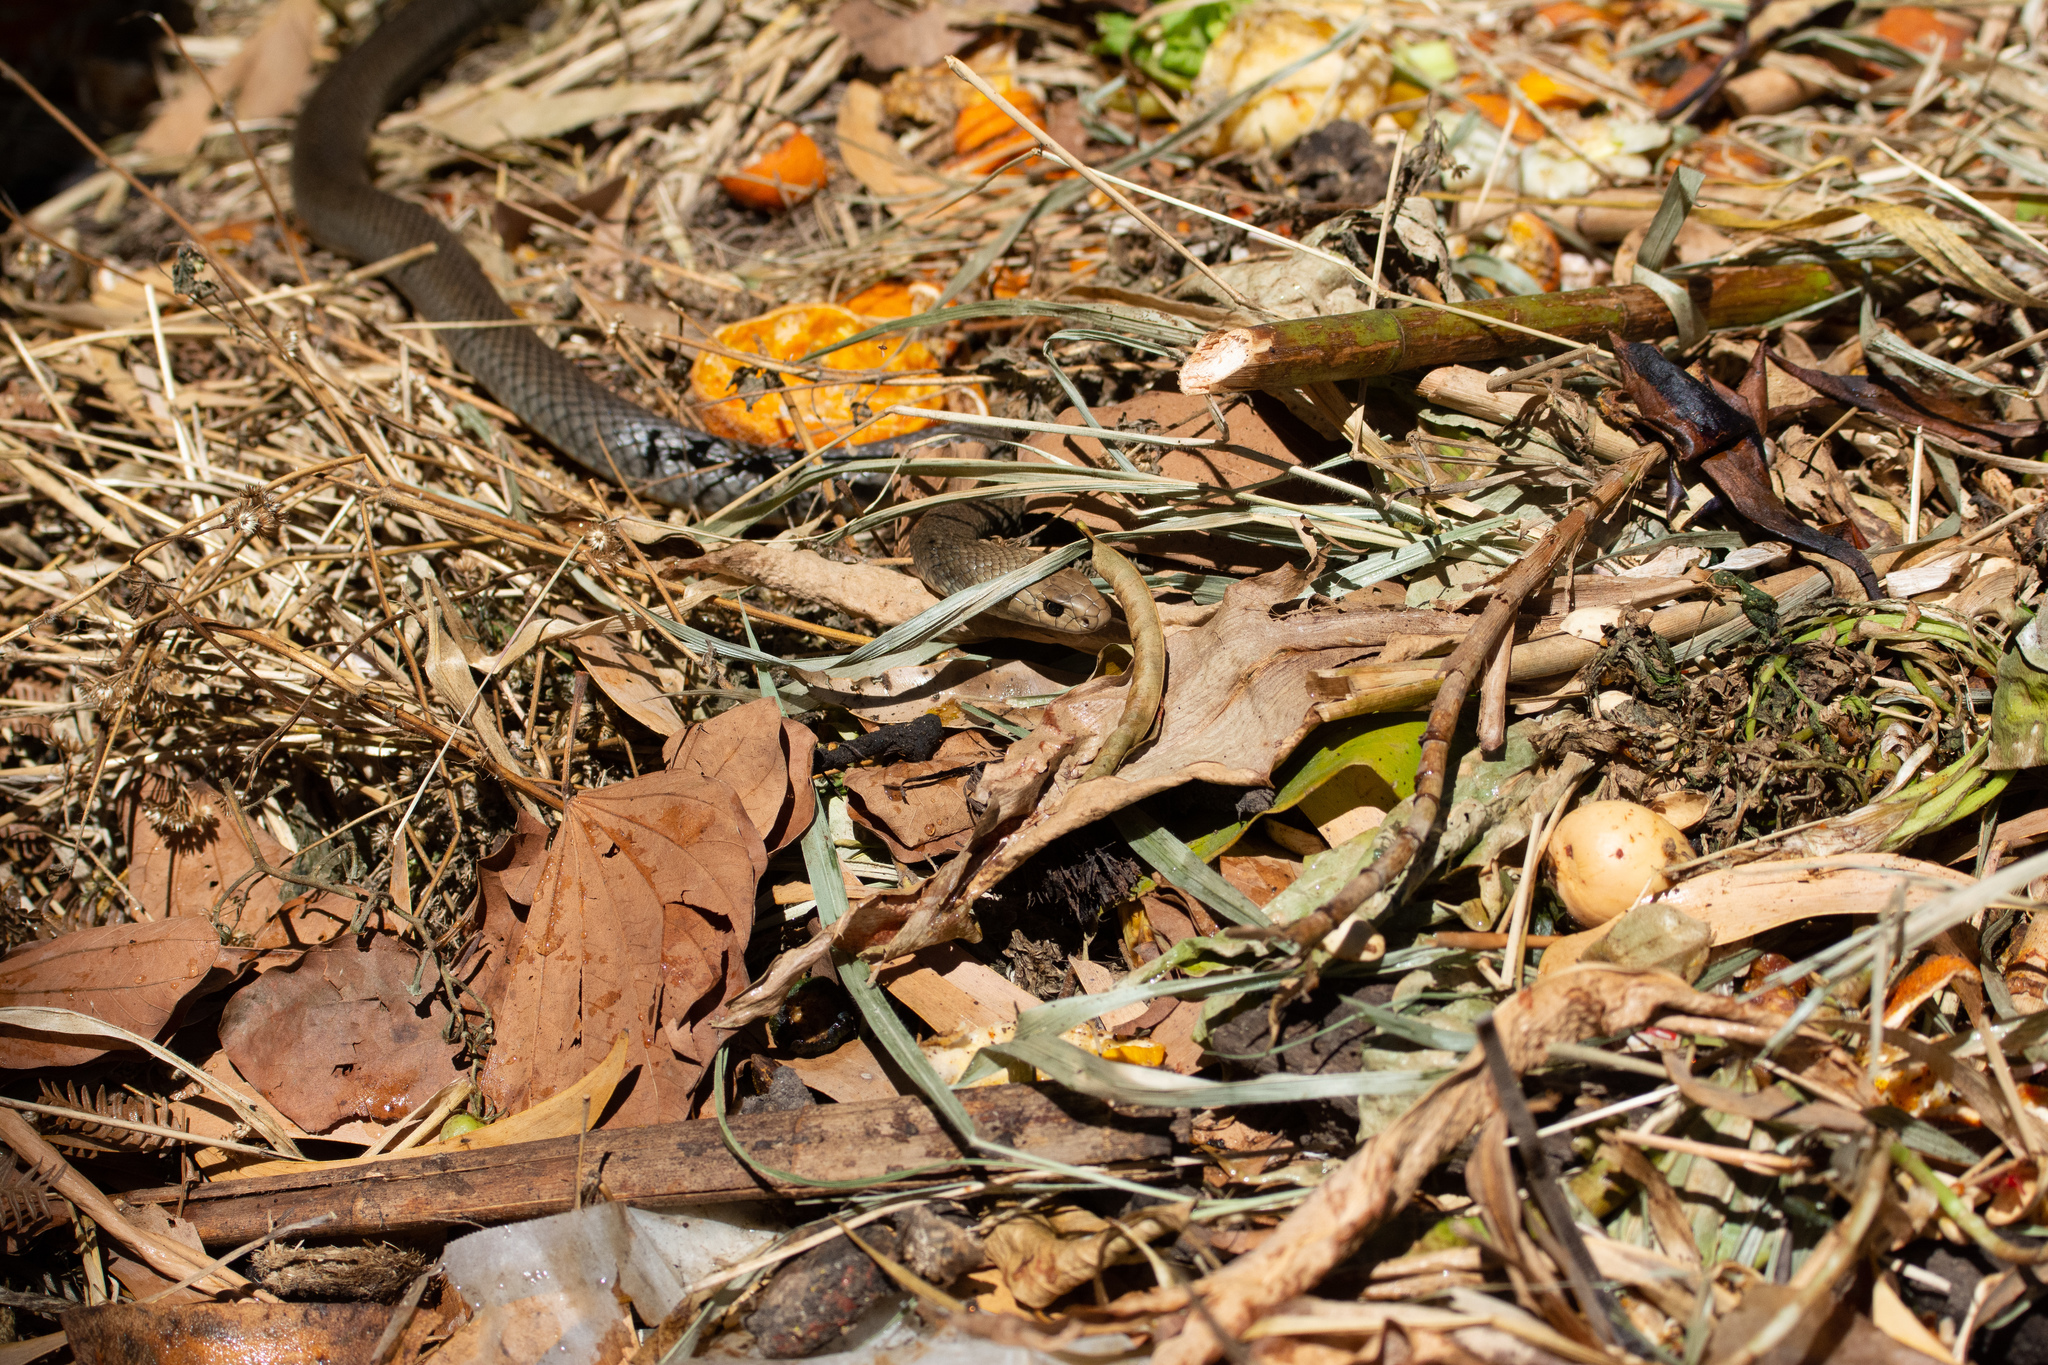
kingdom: Animalia
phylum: Chordata
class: Squamata
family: Elapidae
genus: Pseudonaja
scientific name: Pseudonaja textilis
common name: Eastern brown snake
